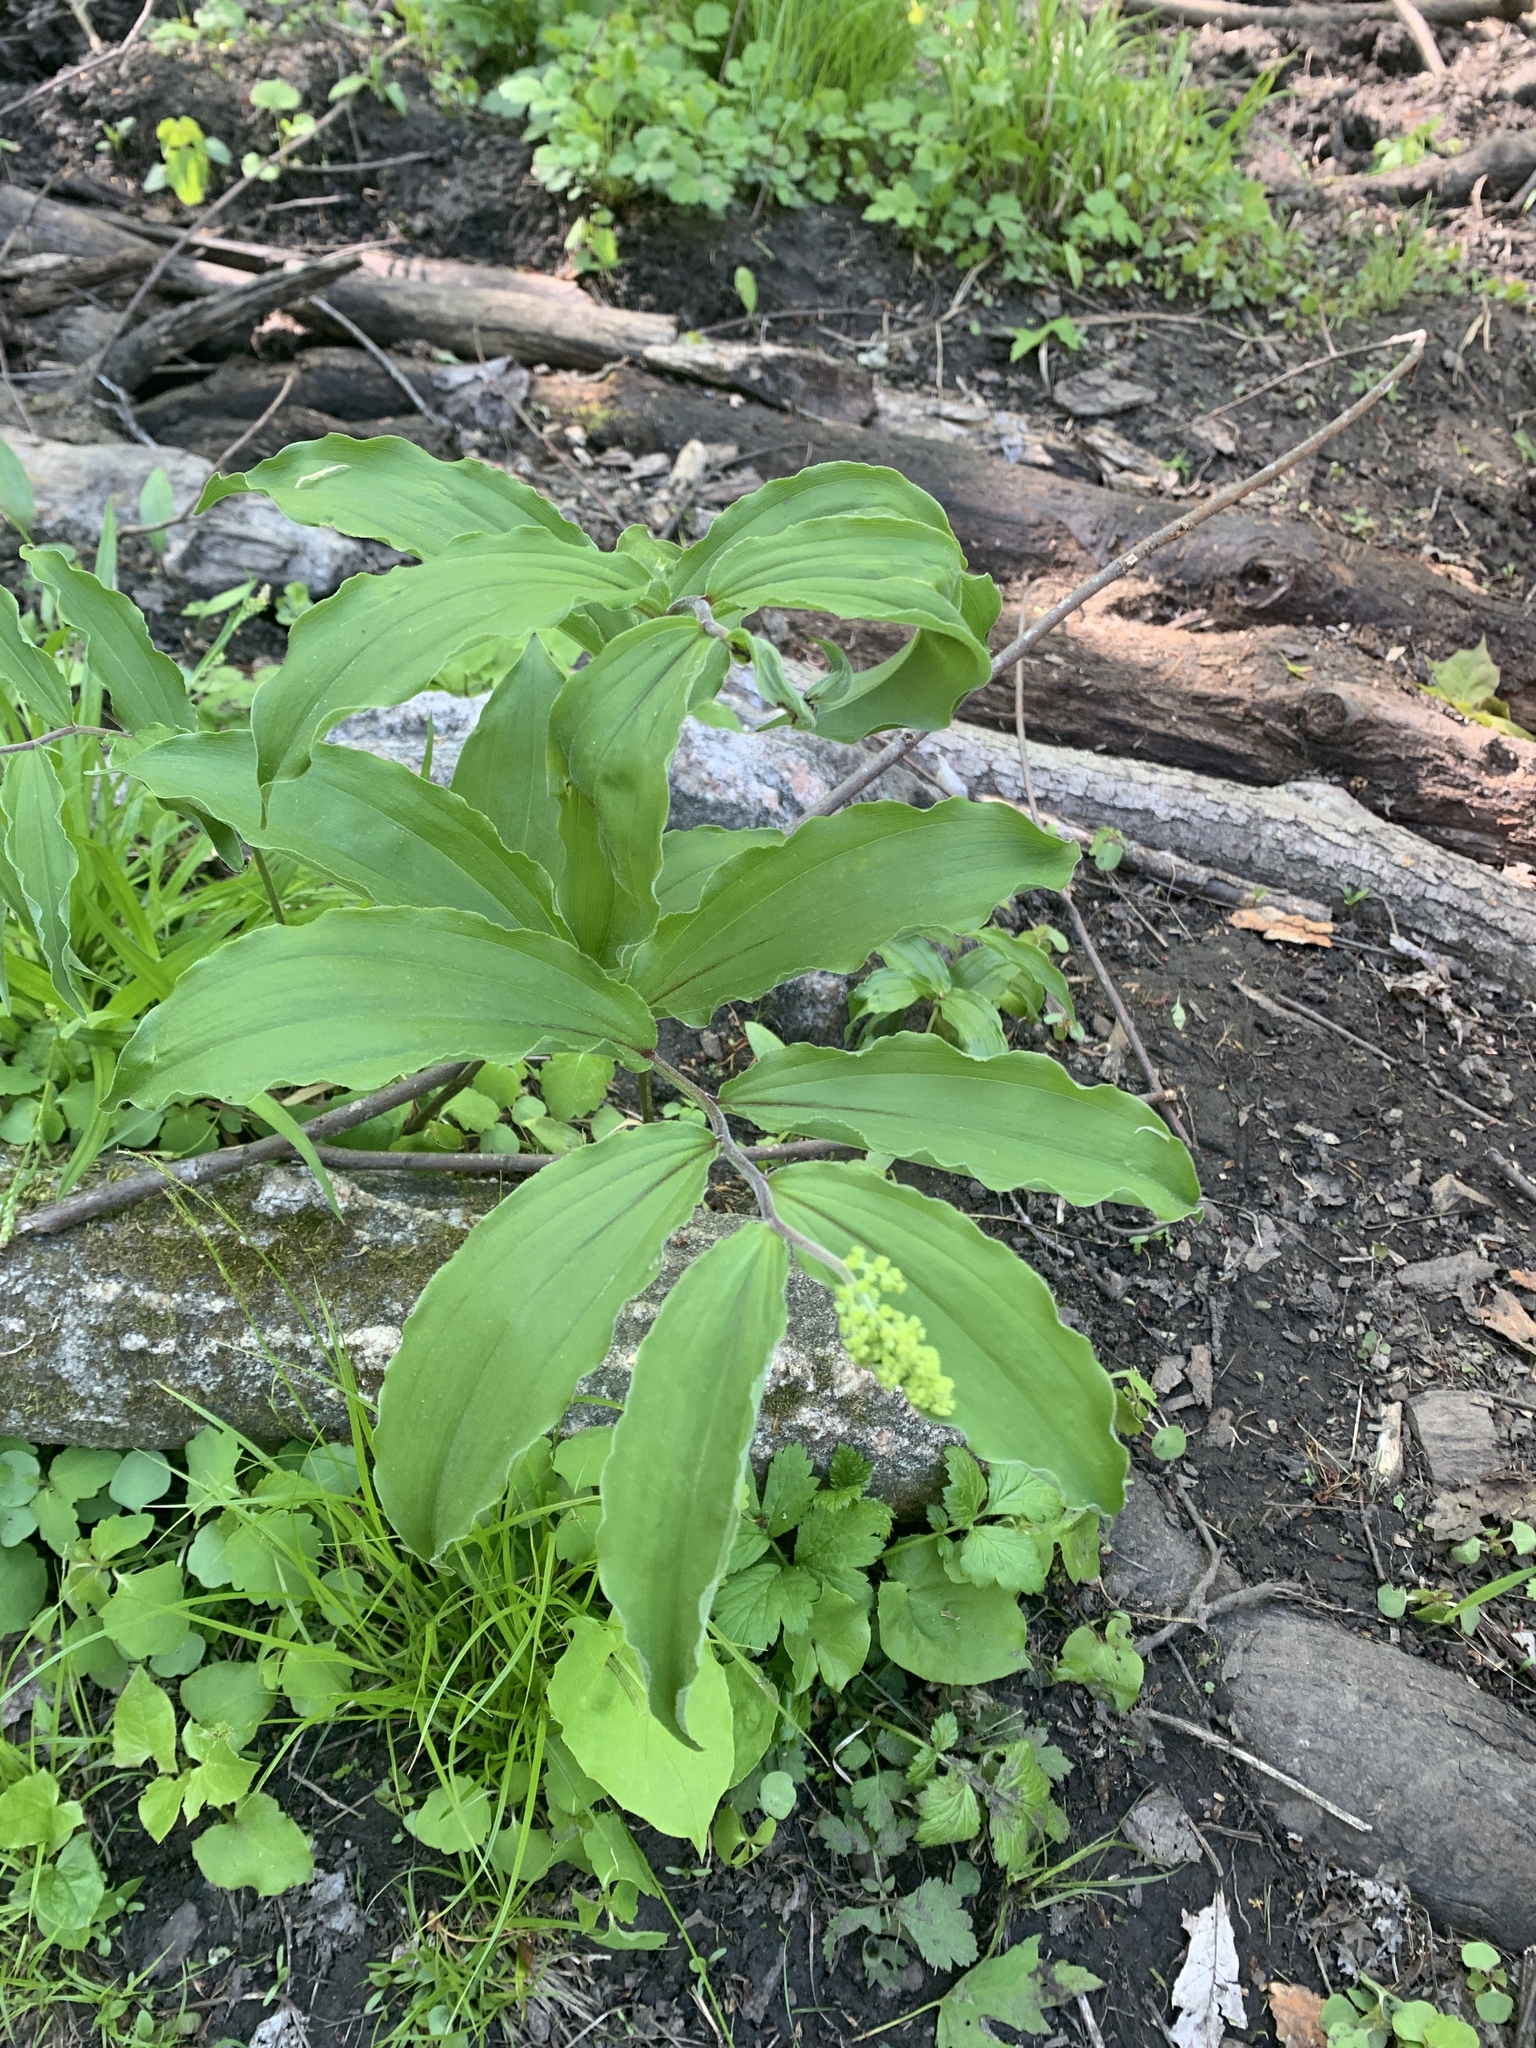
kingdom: Plantae
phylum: Tracheophyta
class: Liliopsida
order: Asparagales
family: Asparagaceae
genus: Maianthemum
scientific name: Maianthemum racemosum
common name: False spikenard
